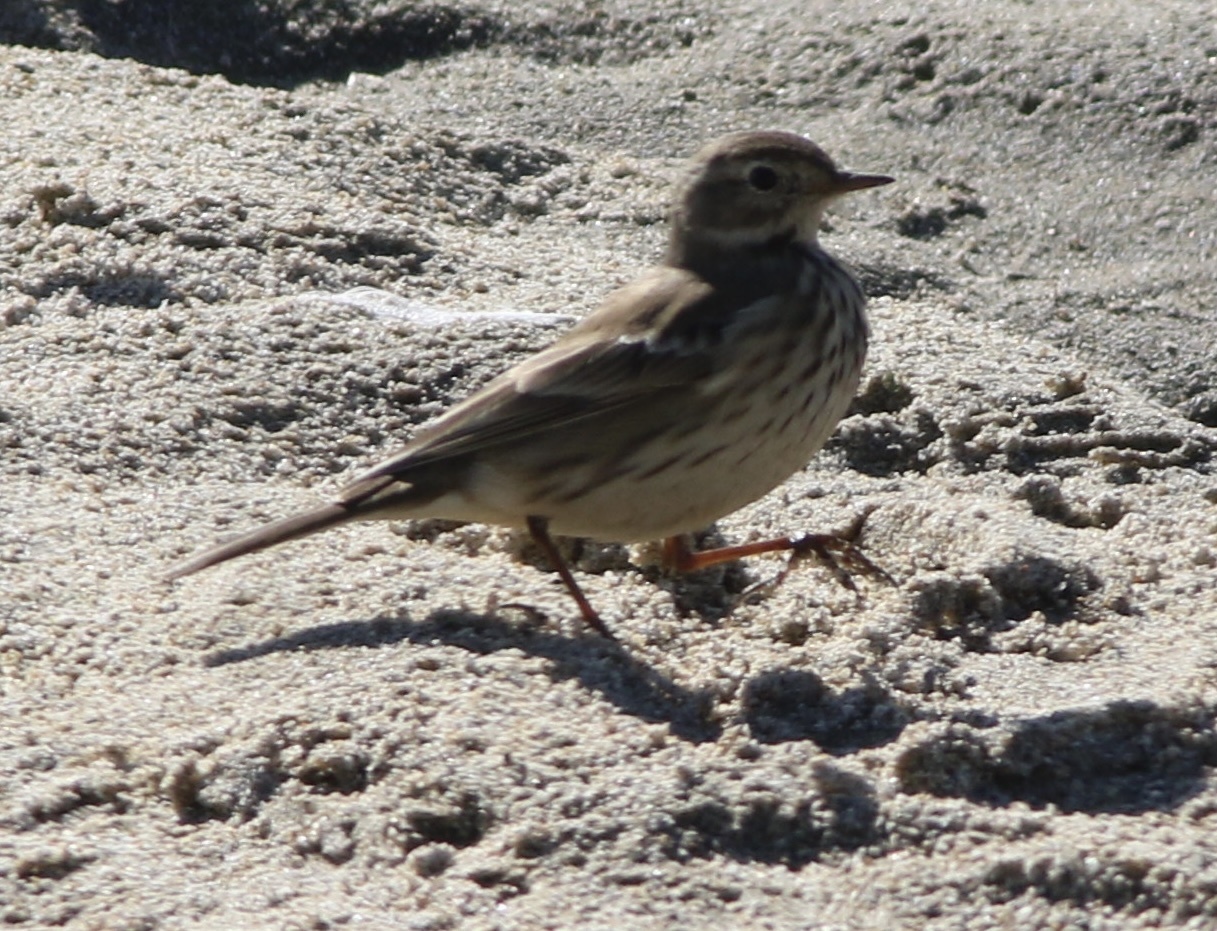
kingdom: Animalia
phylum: Chordata
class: Aves
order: Passeriformes
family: Motacillidae
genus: Anthus
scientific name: Anthus rubescens
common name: Buff-bellied pipit
